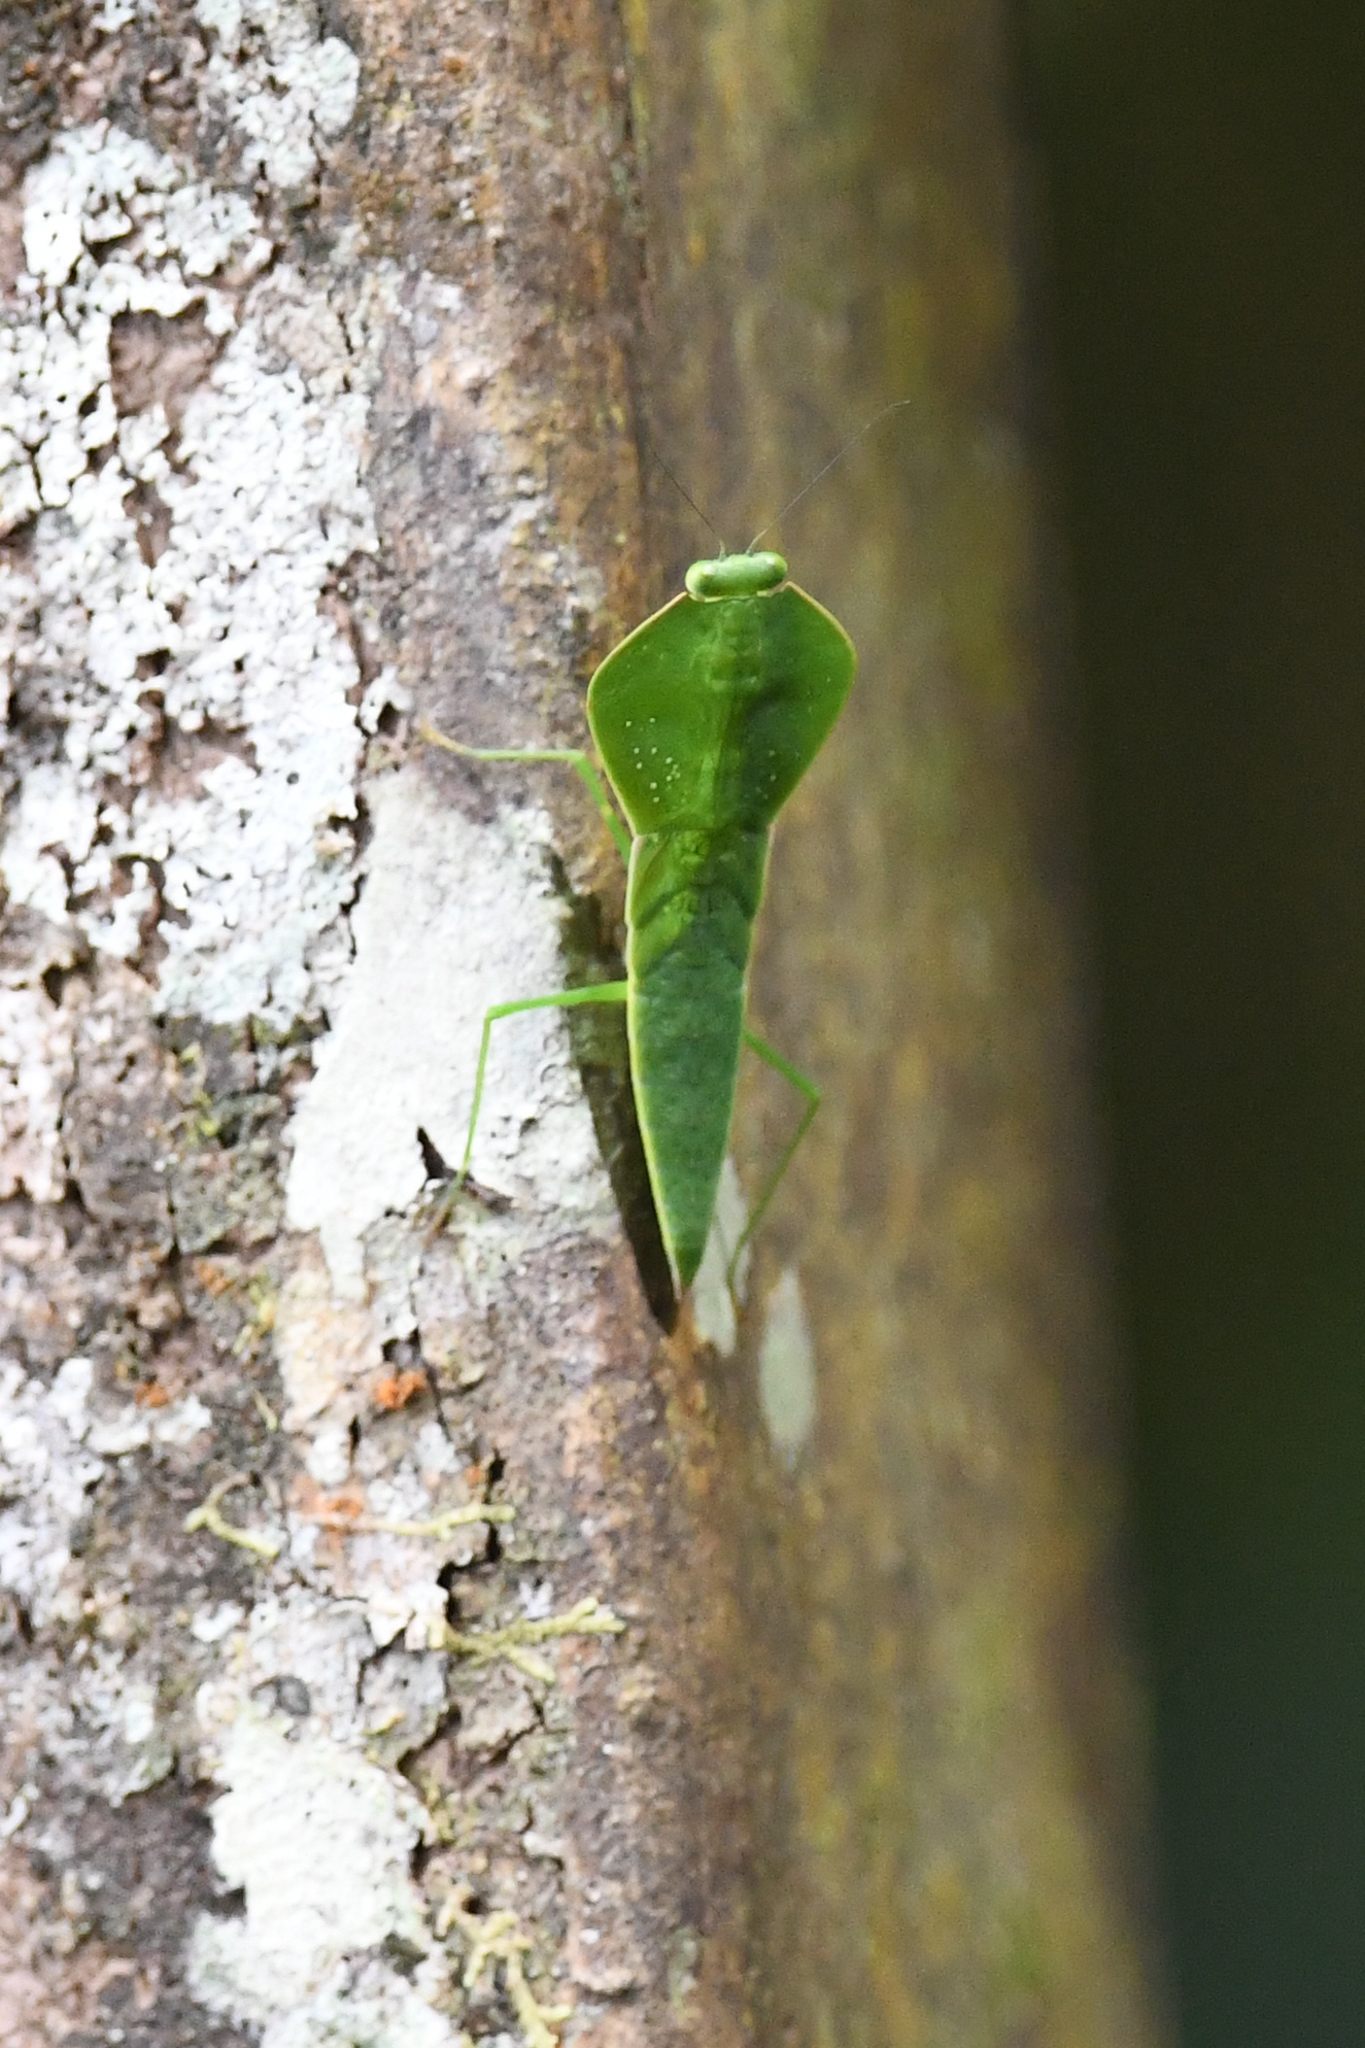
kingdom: Animalia
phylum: Arthropoda
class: Insecta
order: Mantodea
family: Mantidae
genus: Choeradodis
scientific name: Choeradodis rhombicollis
